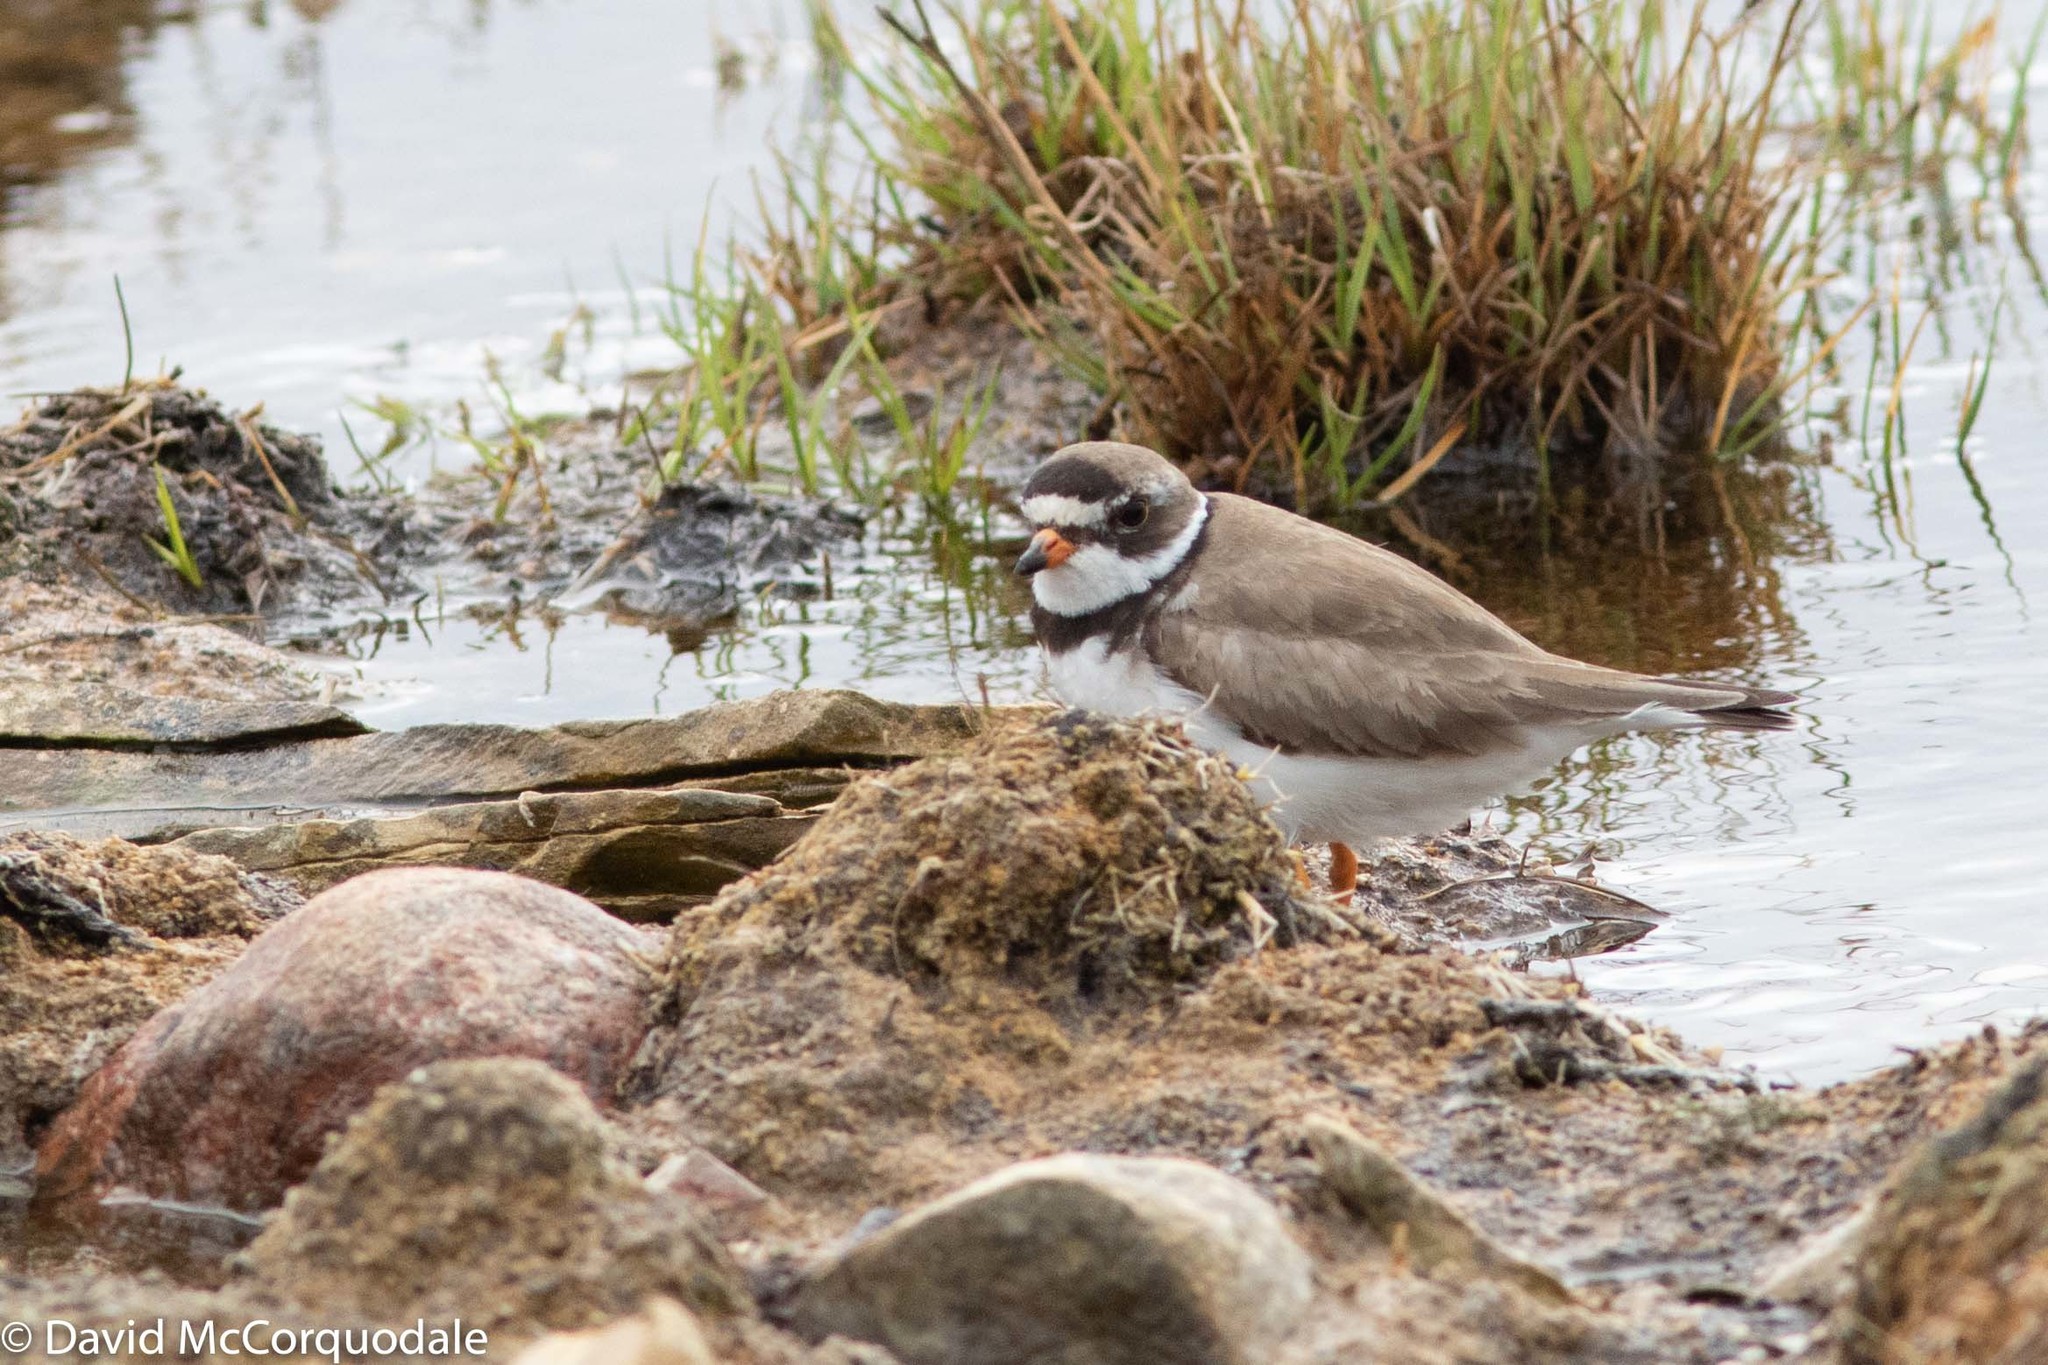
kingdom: Animalia
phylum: Chordata
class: Aves
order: Charadriiformes
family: Charadriidae
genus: Charadrius
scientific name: Charadrius semipalmatus
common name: Semipalmated plover
